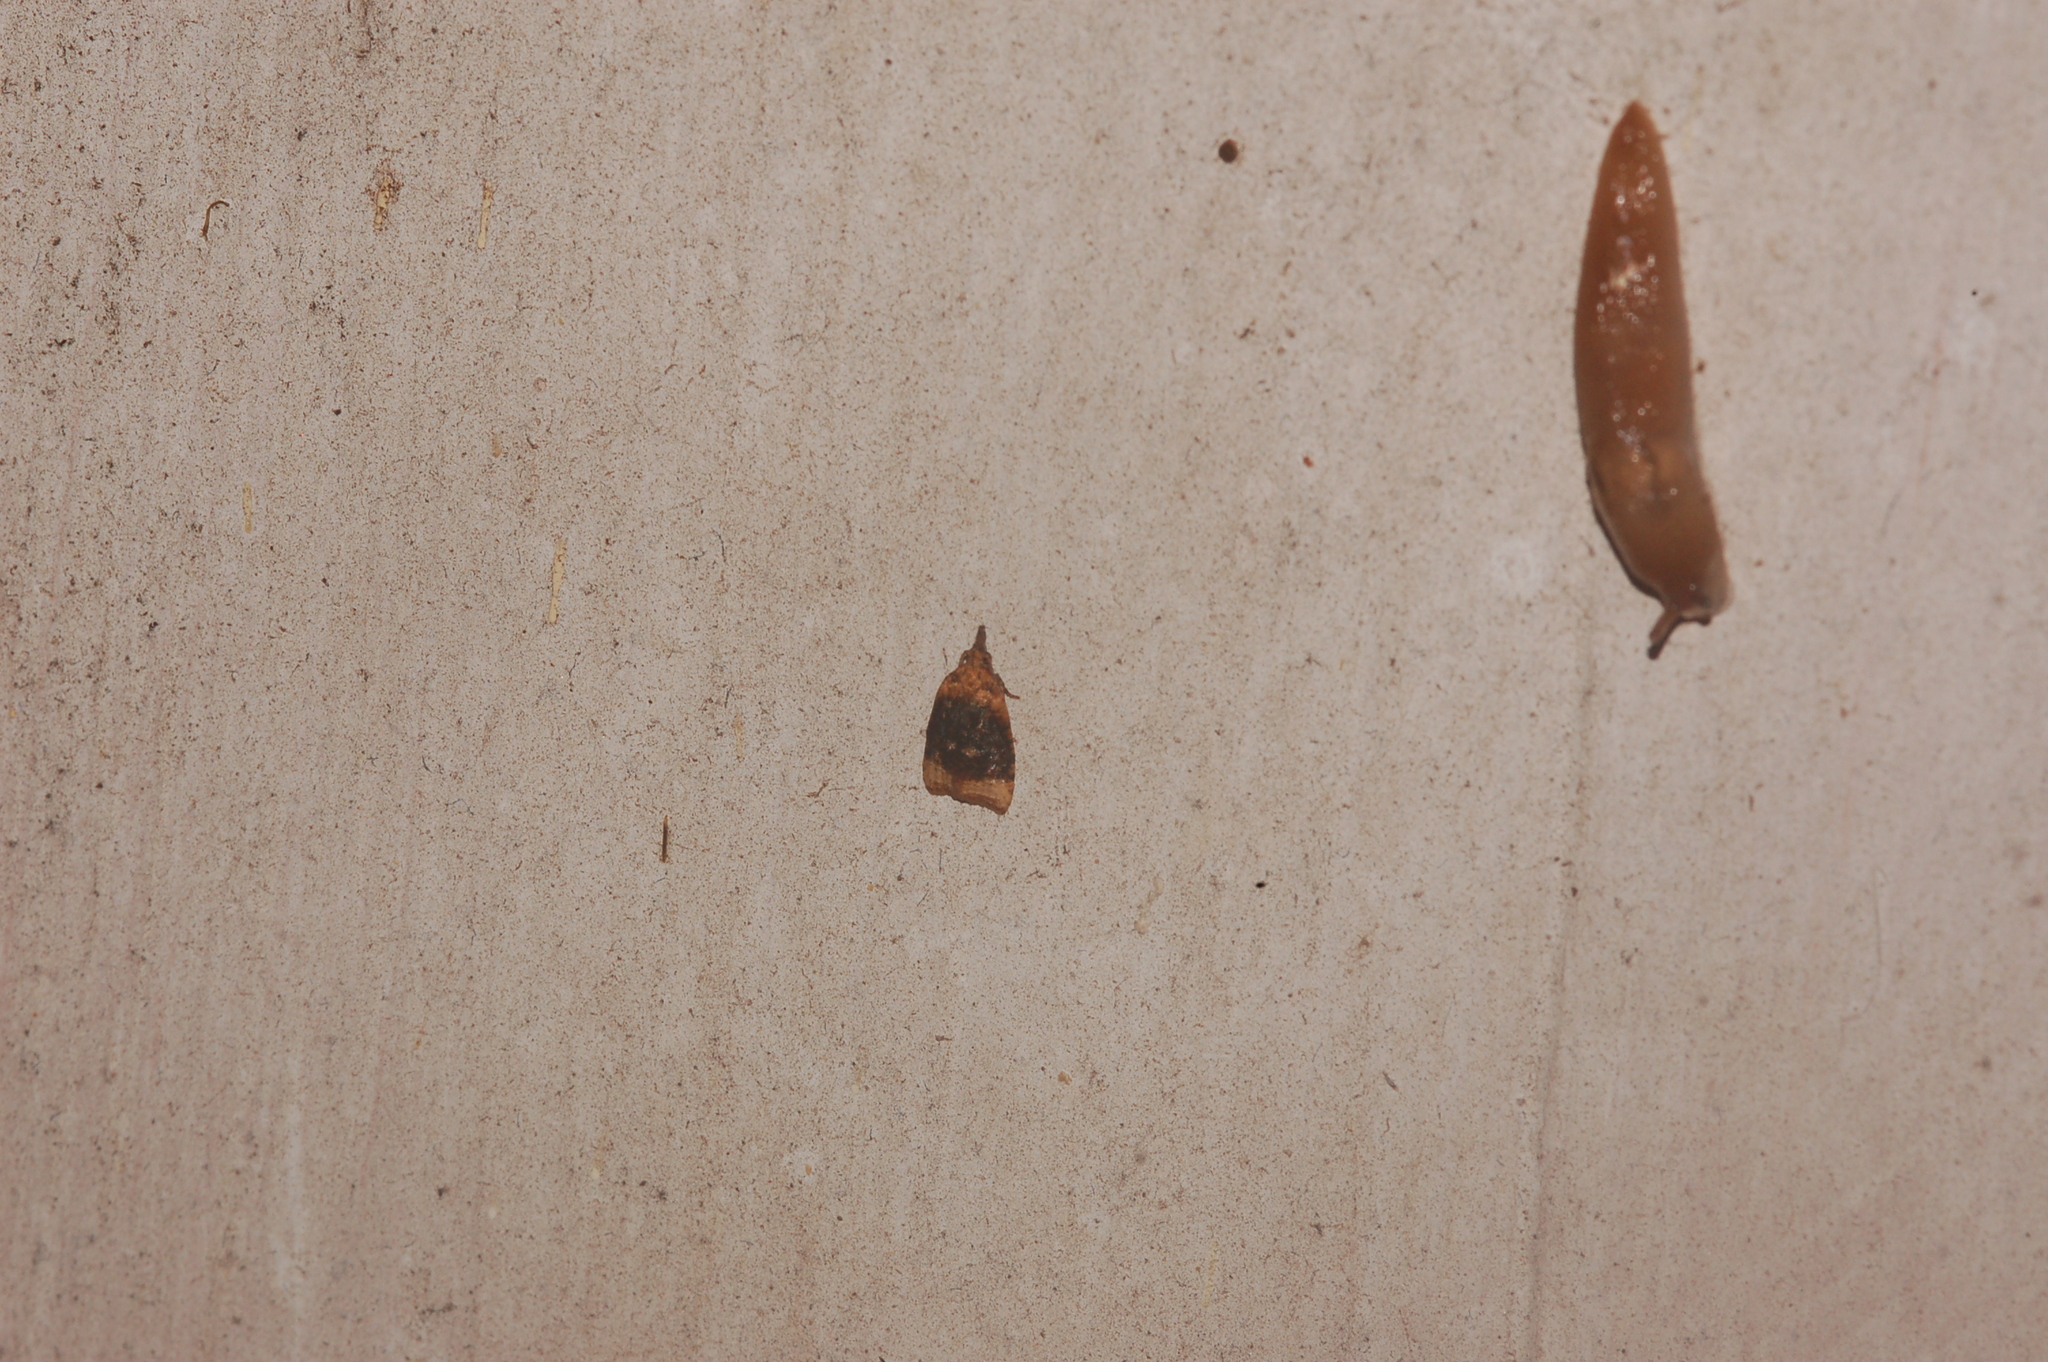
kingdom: Animalia
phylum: Arthropoda
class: Insecta
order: Lepidoptera
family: Tortricidae
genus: Platynota
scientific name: Platynota flavedana
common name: Black-shaded platynota moth
